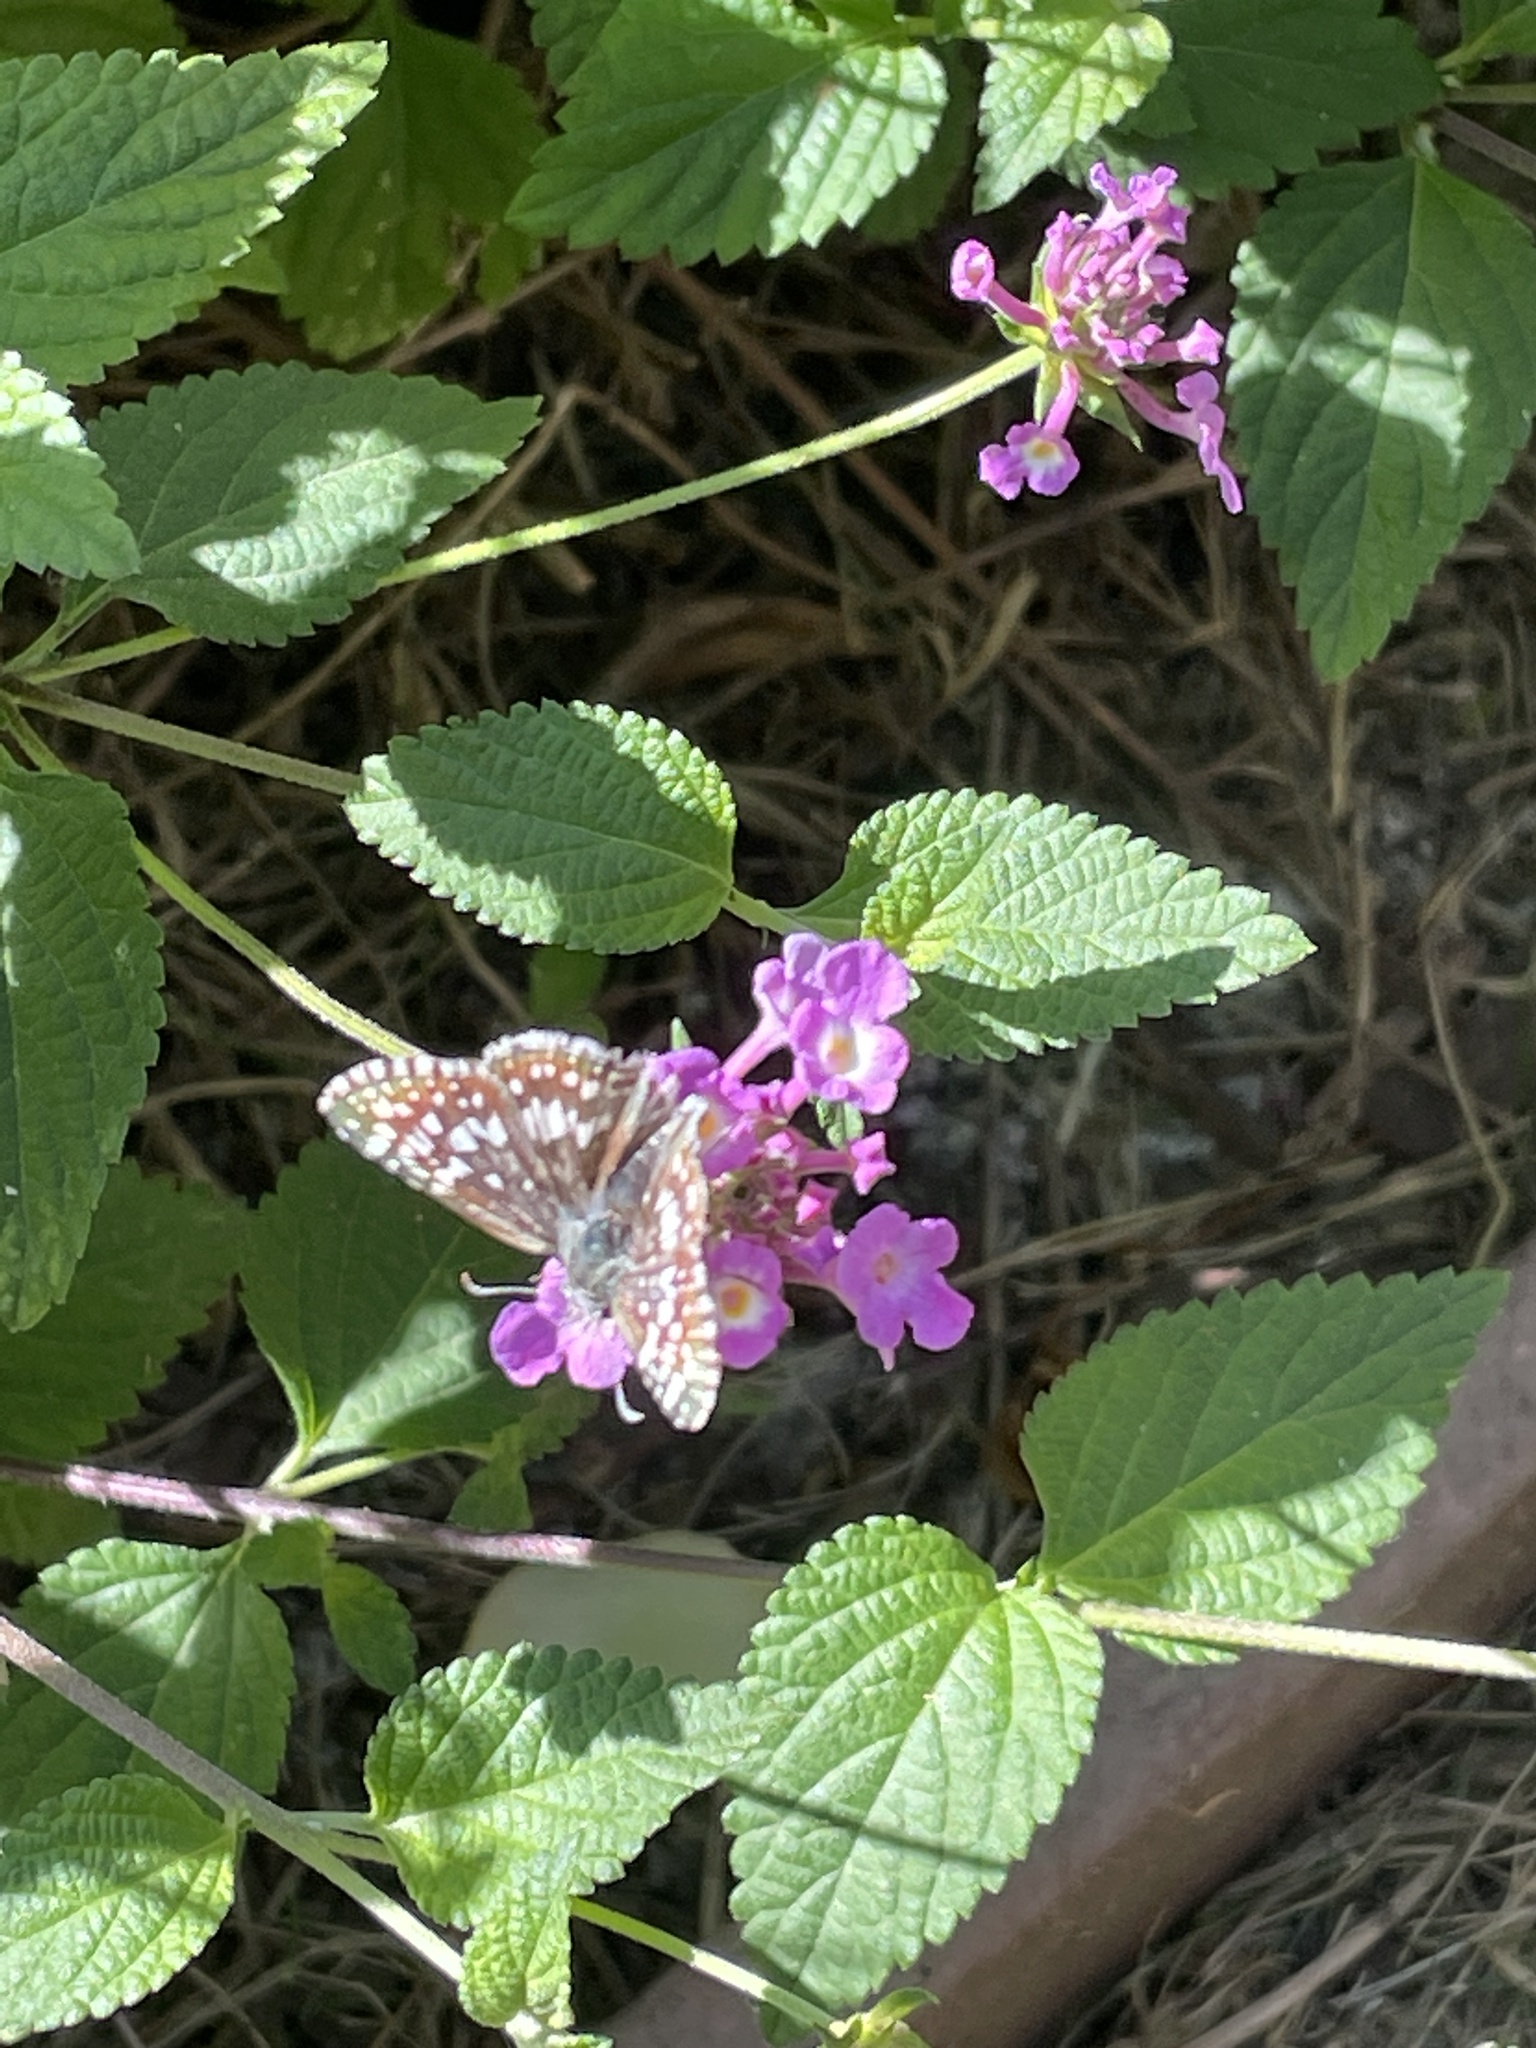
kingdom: Animalia
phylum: Arthropoda
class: Insecta
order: Lepidoptera
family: Hesperiidae
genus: Burnsius
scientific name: Burnsius communis
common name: Common checkered-skipper
